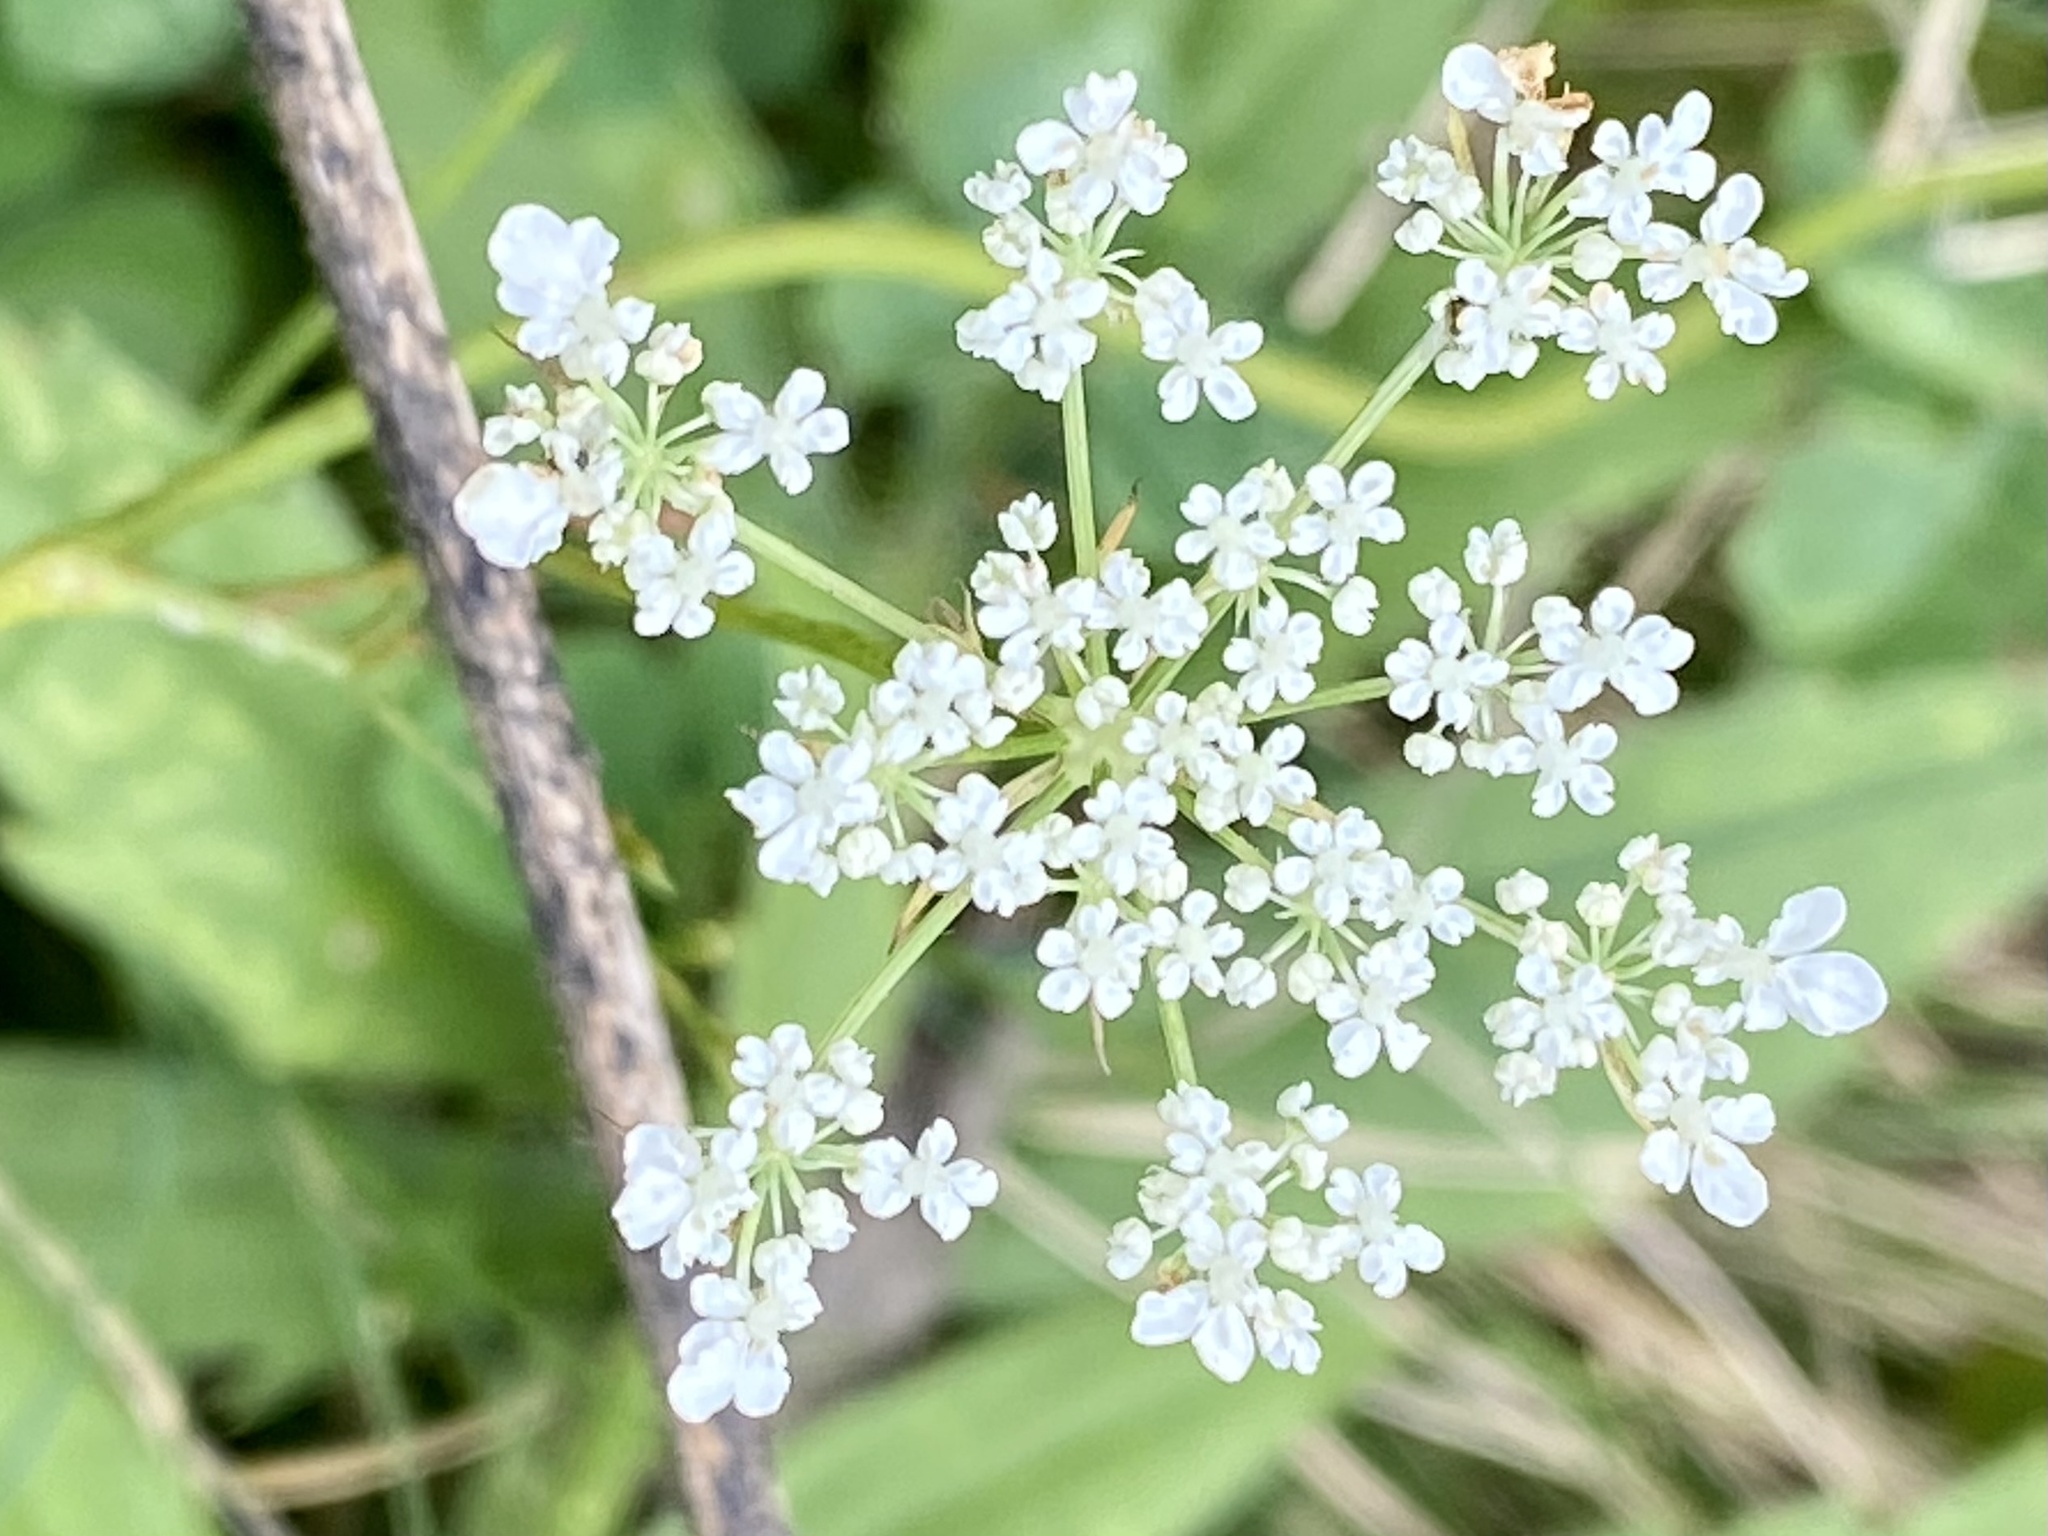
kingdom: Plantae
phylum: Tracheophyta
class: Magnoliopsida
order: Apiales
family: Apiaceae
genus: Daucus
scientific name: Daucus carota
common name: Wild carrot
